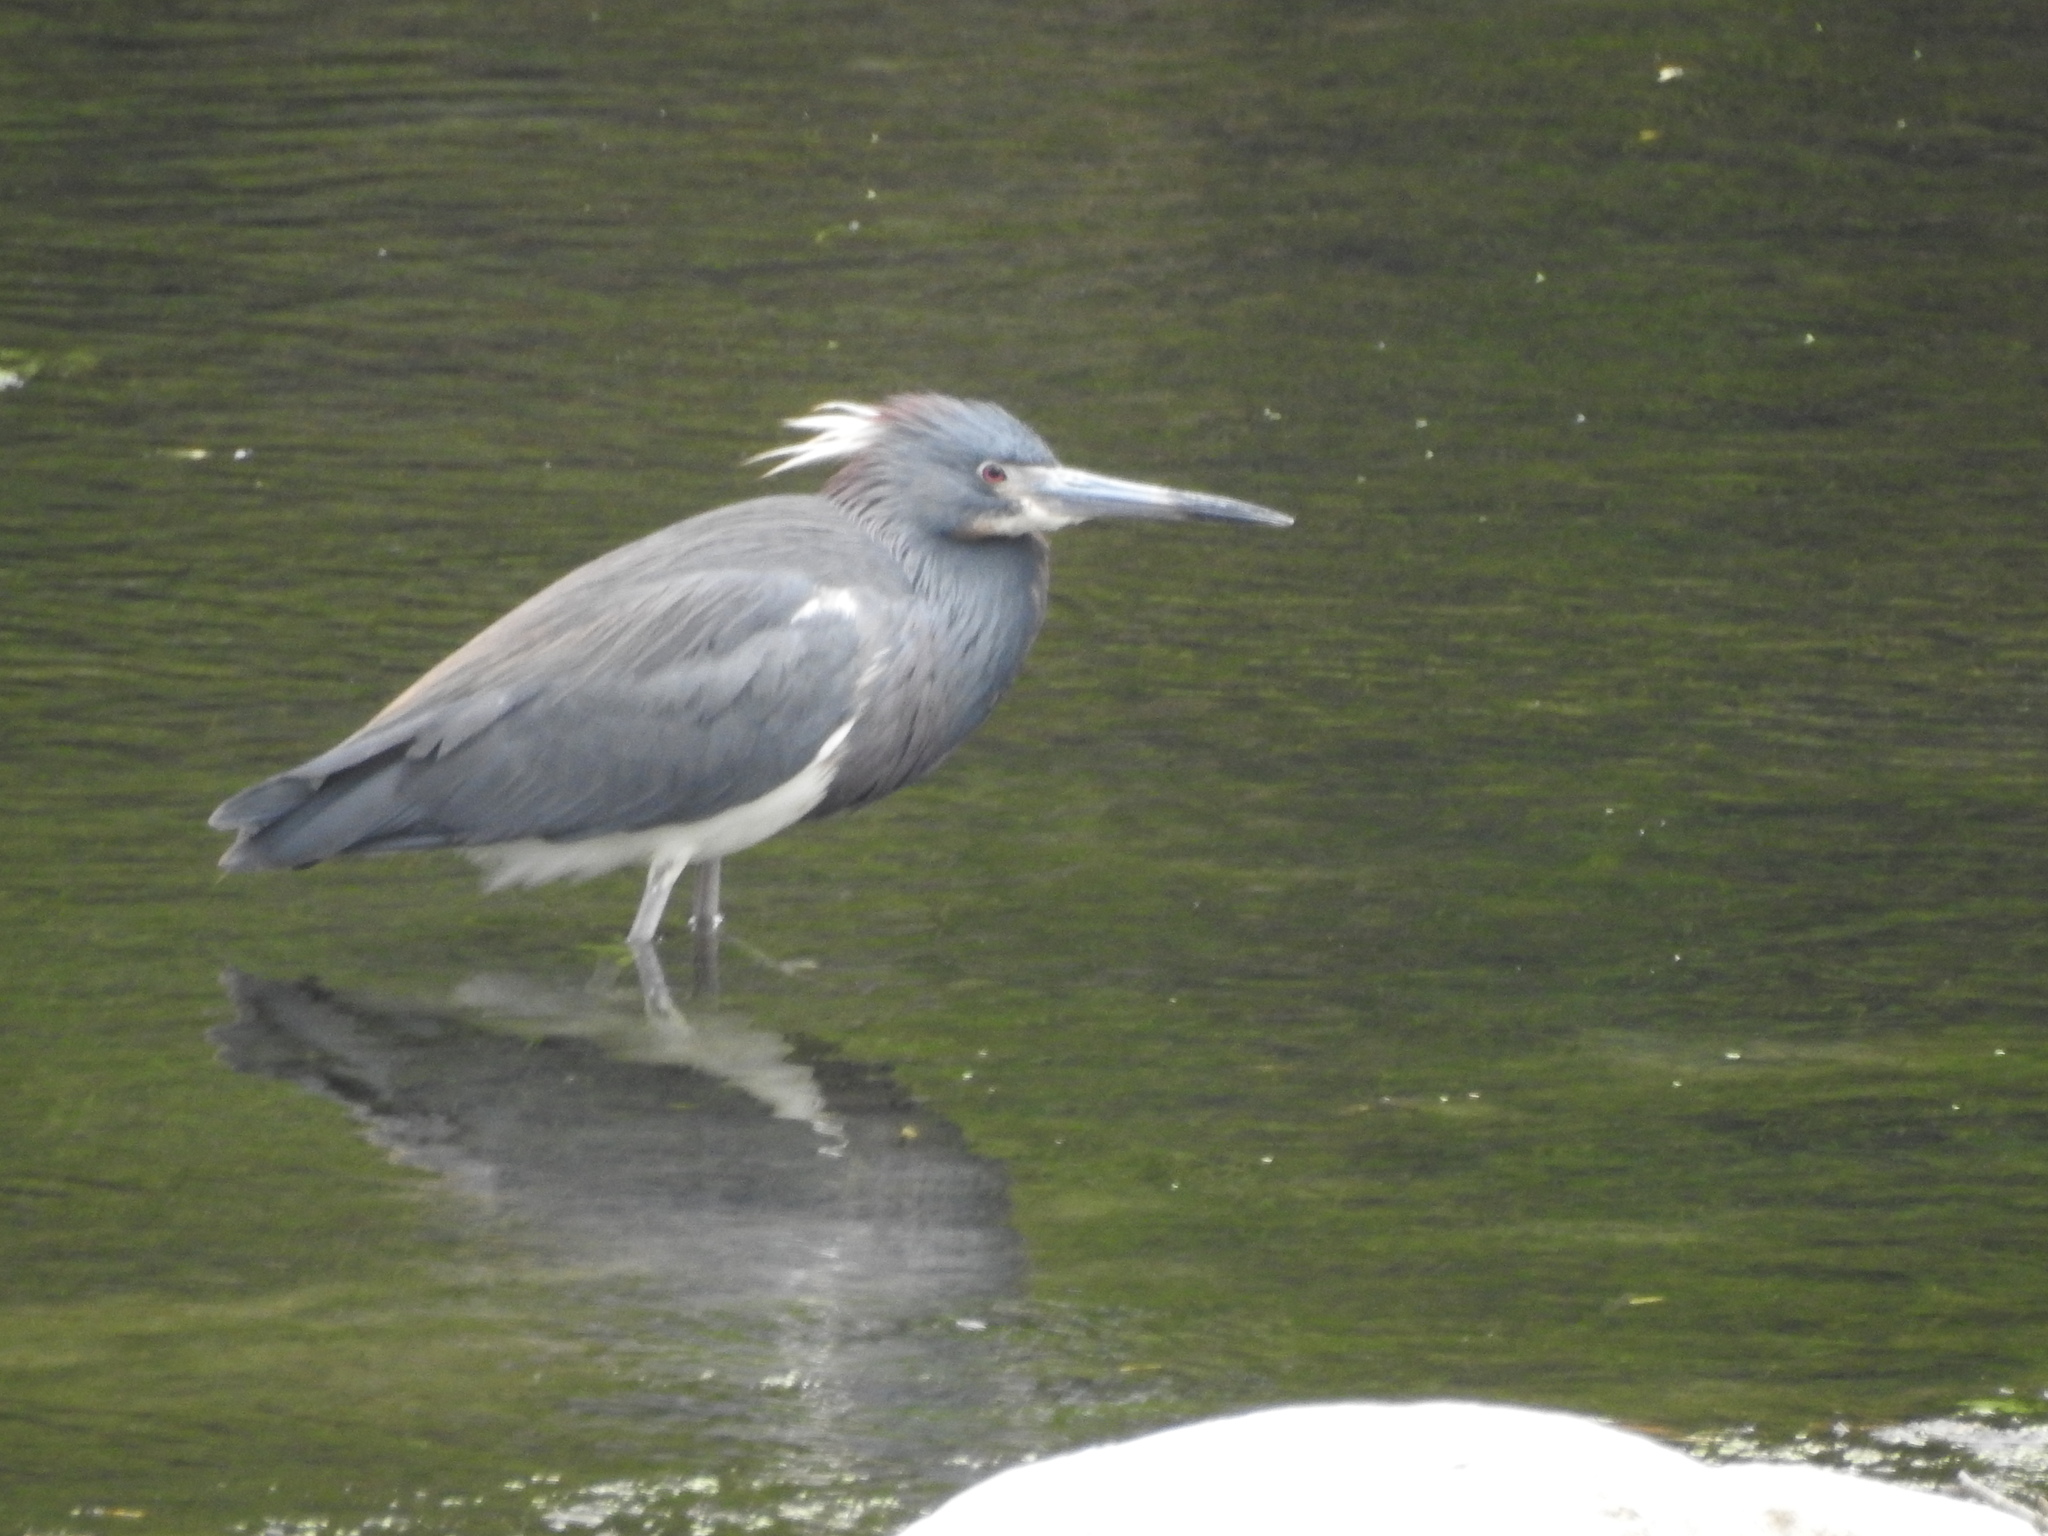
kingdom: Animalia
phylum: Chordata
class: Aves
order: Pelecaniformes
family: Ardeidae
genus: Egretta
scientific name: Egretta tricolor
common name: Tricolored heron
